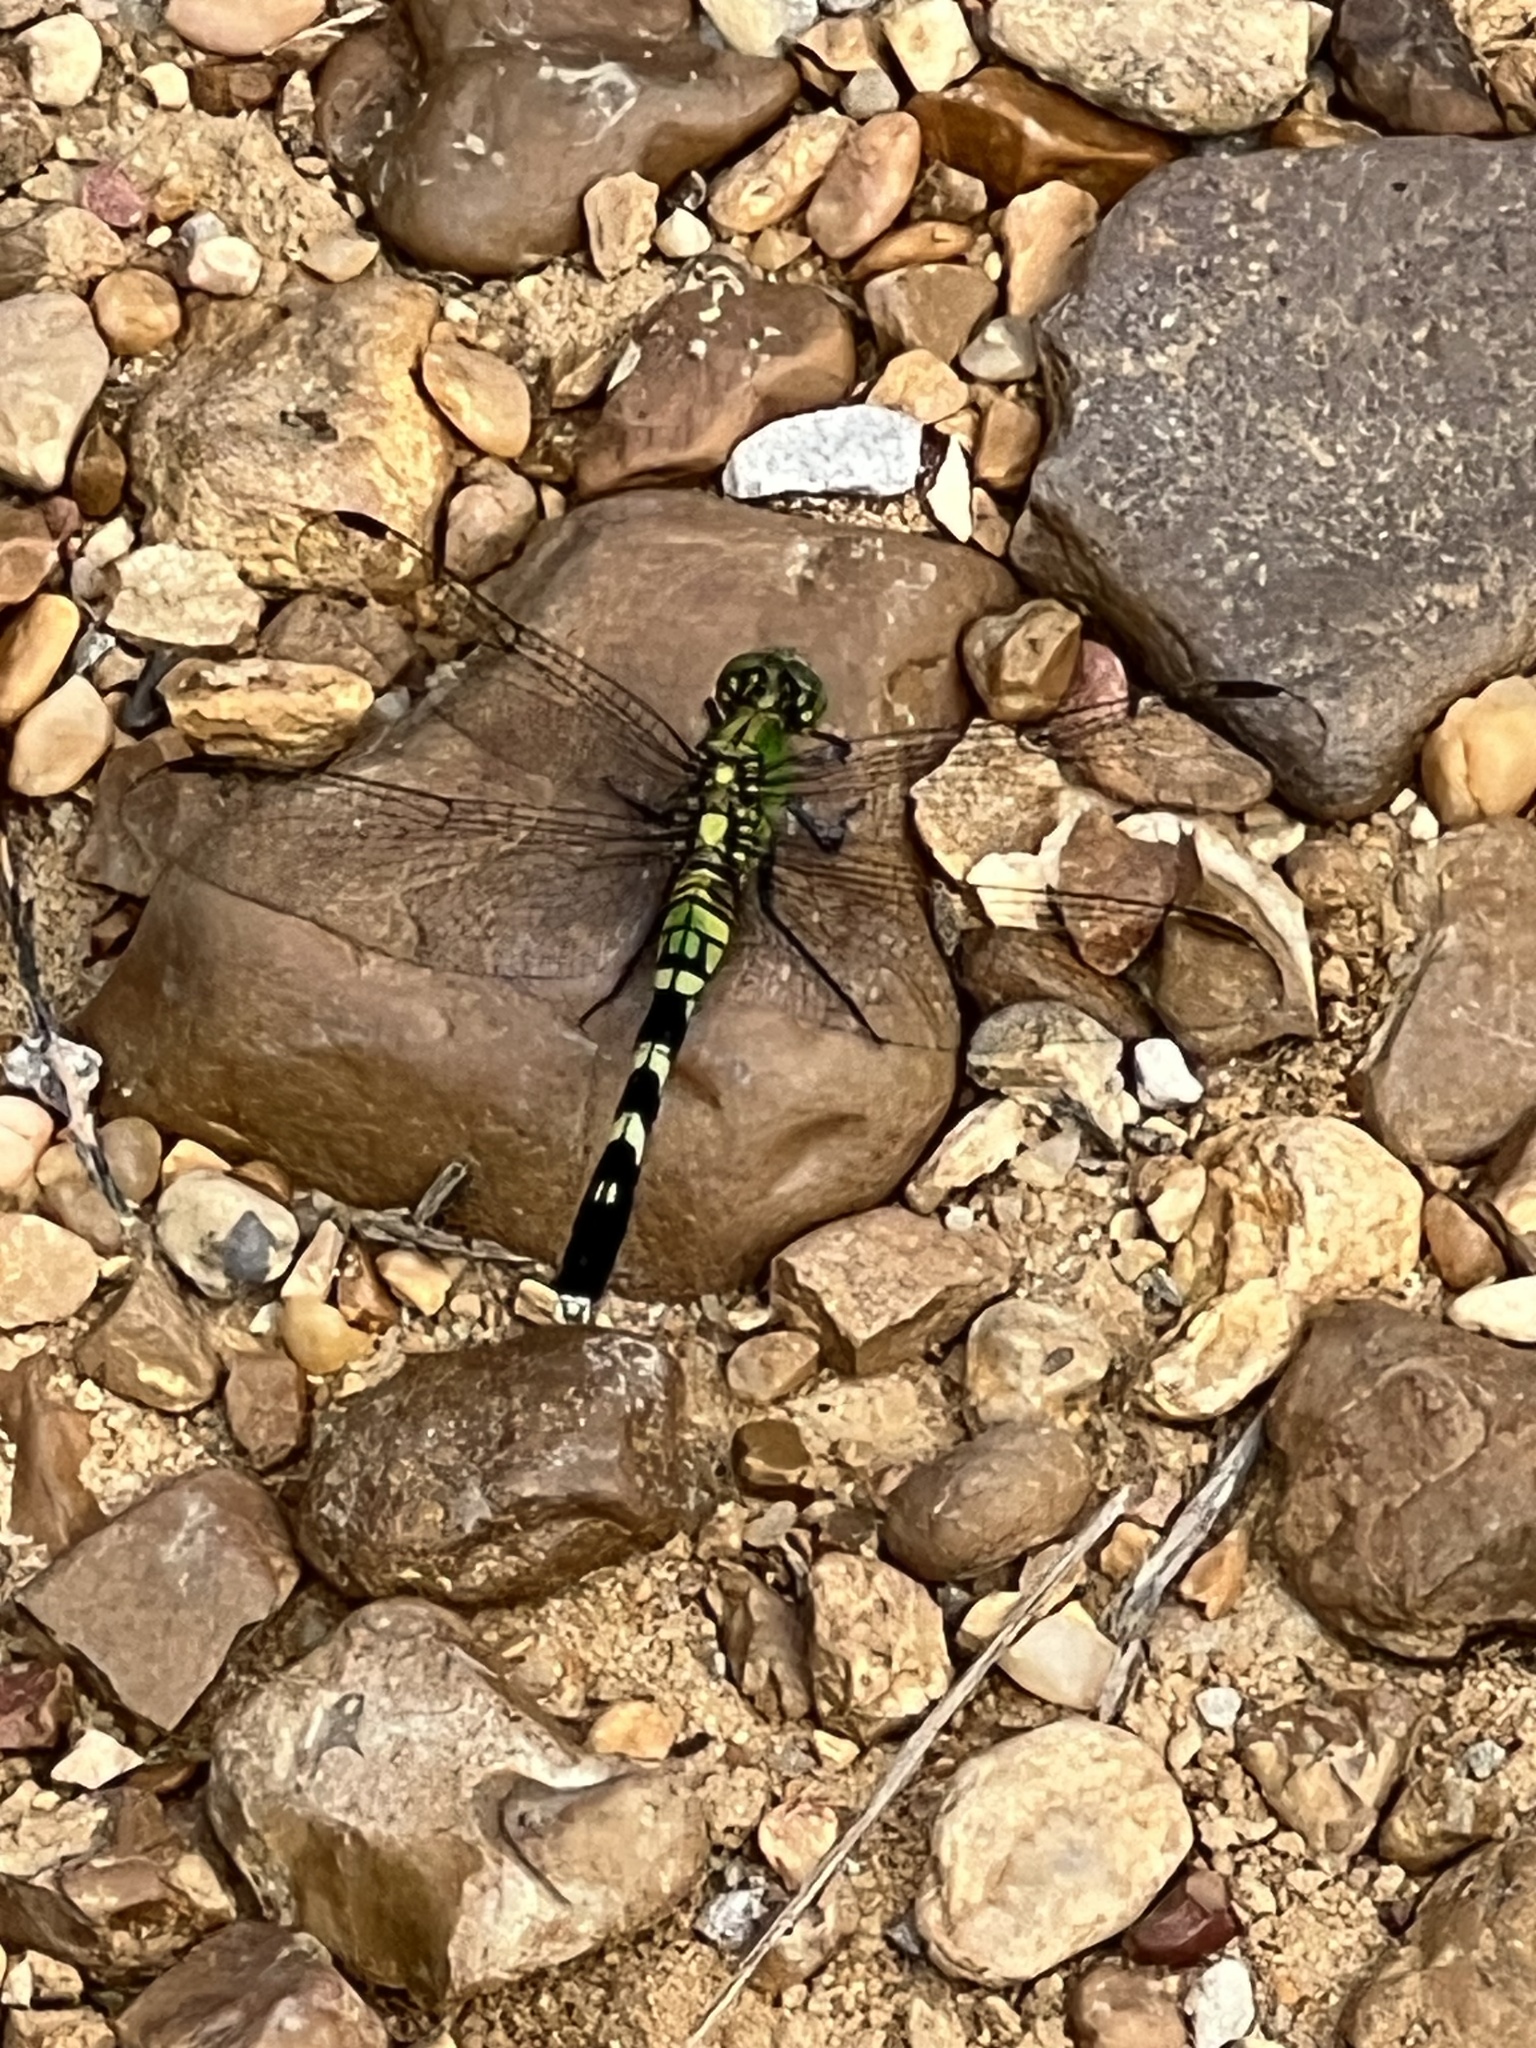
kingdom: Animalia
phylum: Arthropoda
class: Insecta
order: Odonata
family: Libellulidae
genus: Erythemis
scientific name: Erythemis simplicicollis
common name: Eastern pondhawk
